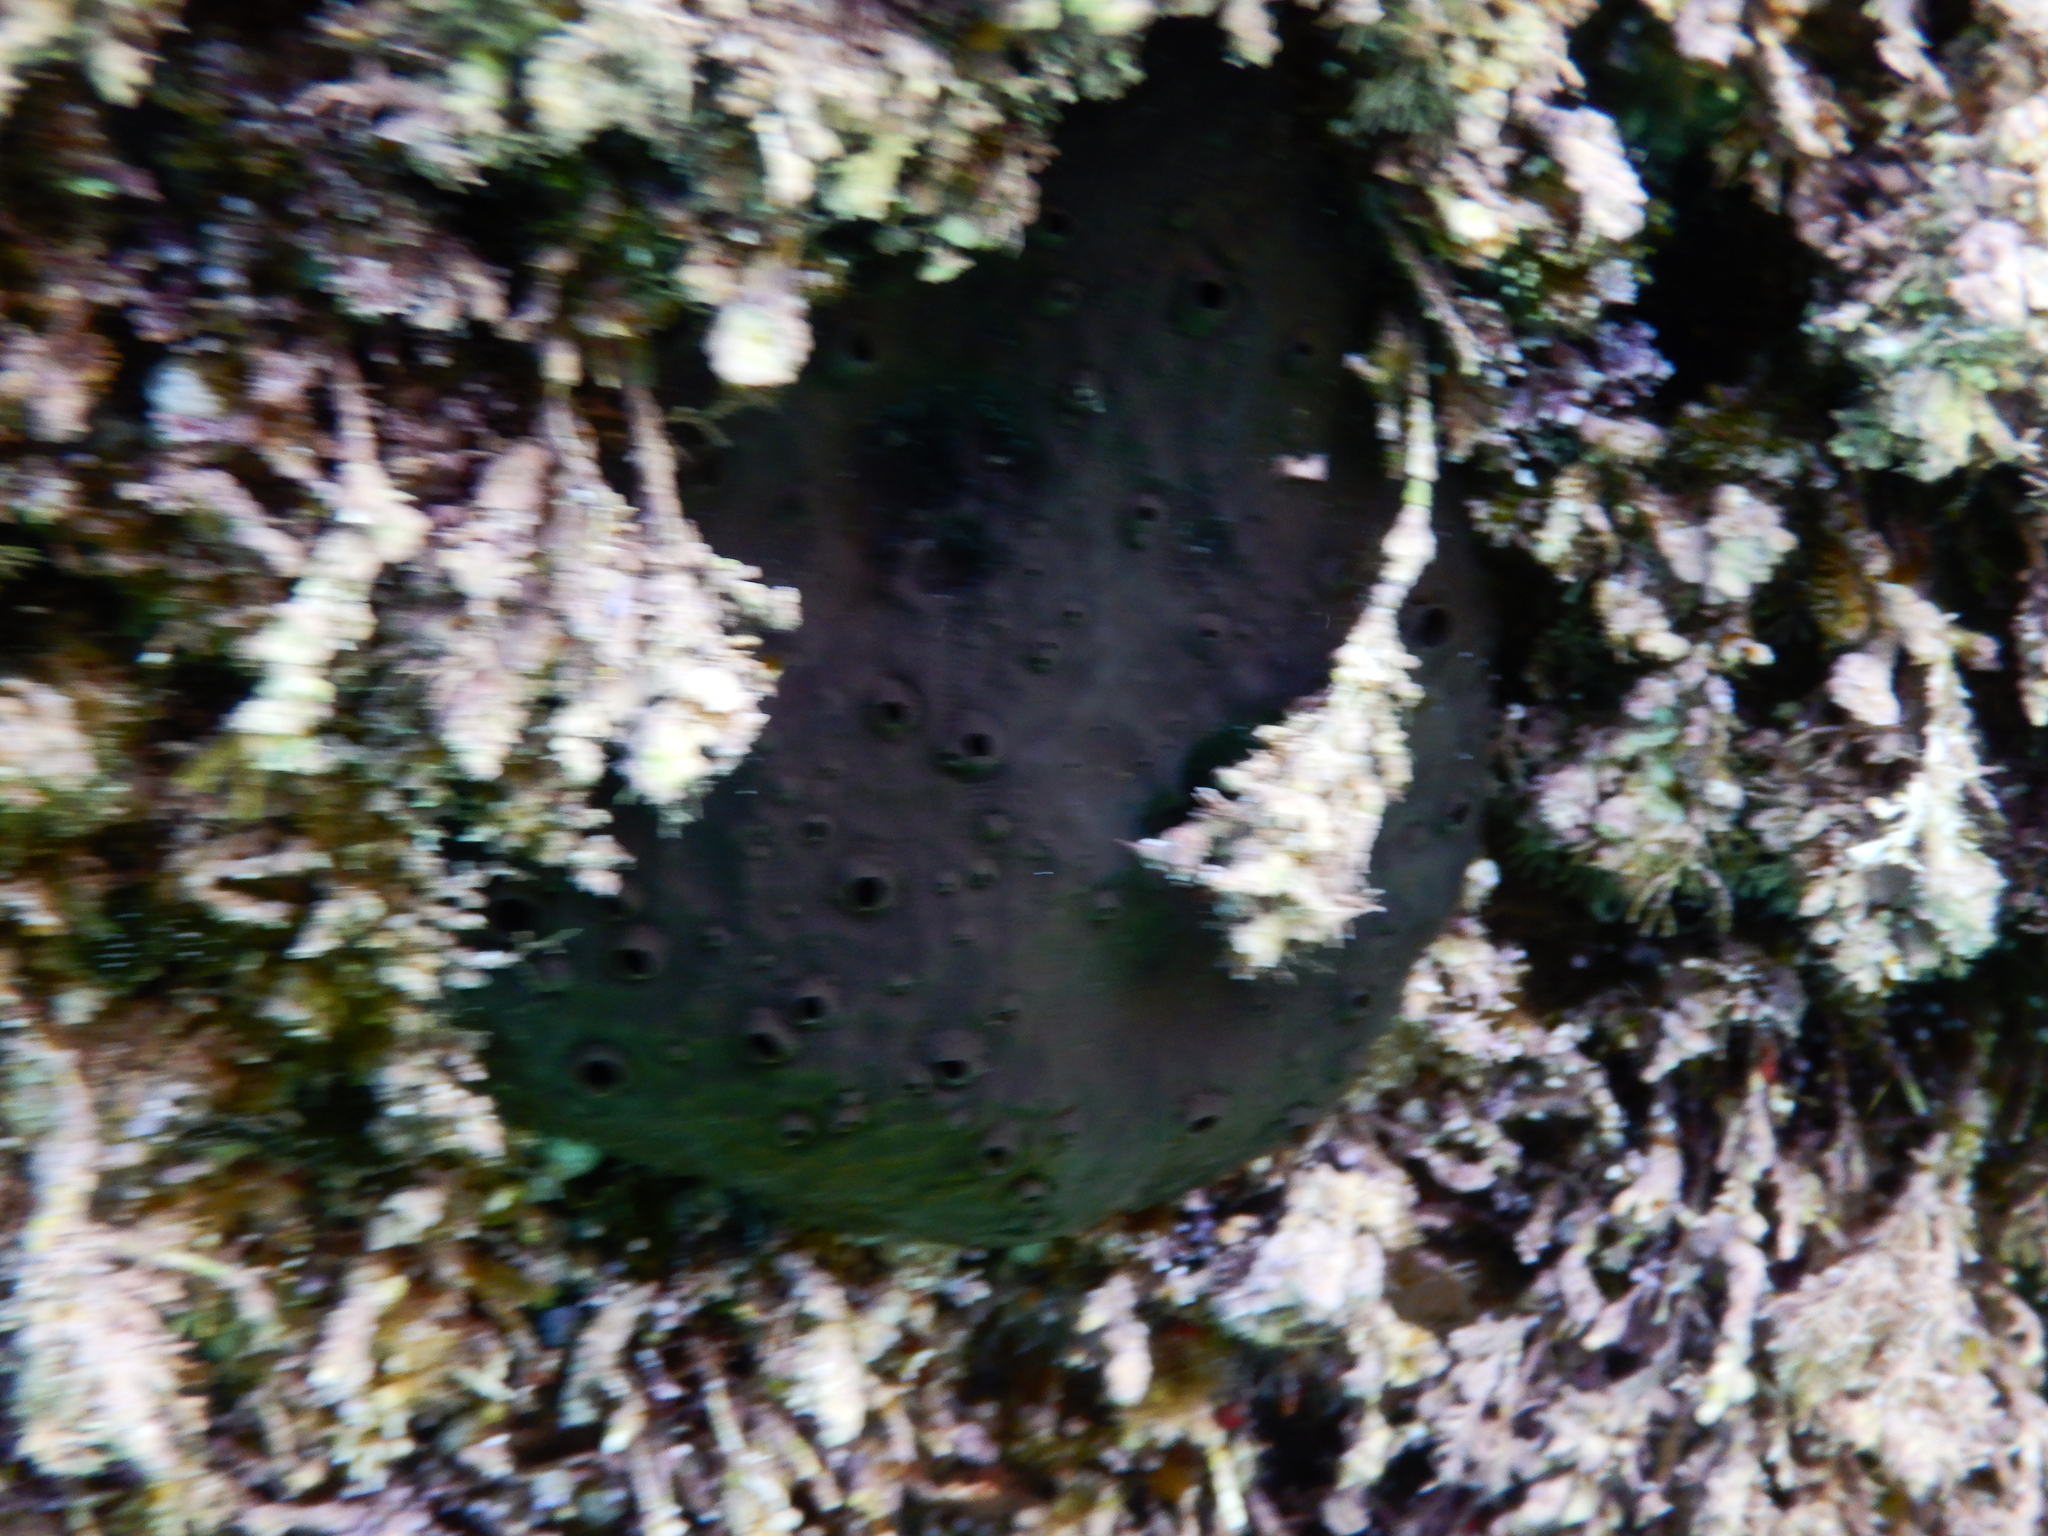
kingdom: Animalia
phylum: Porifera
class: Demospongiae
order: Dictyoceratida
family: Irciniidae
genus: Sarcotragus
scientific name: Sarcotragus spinosulus
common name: Black leather sponge
